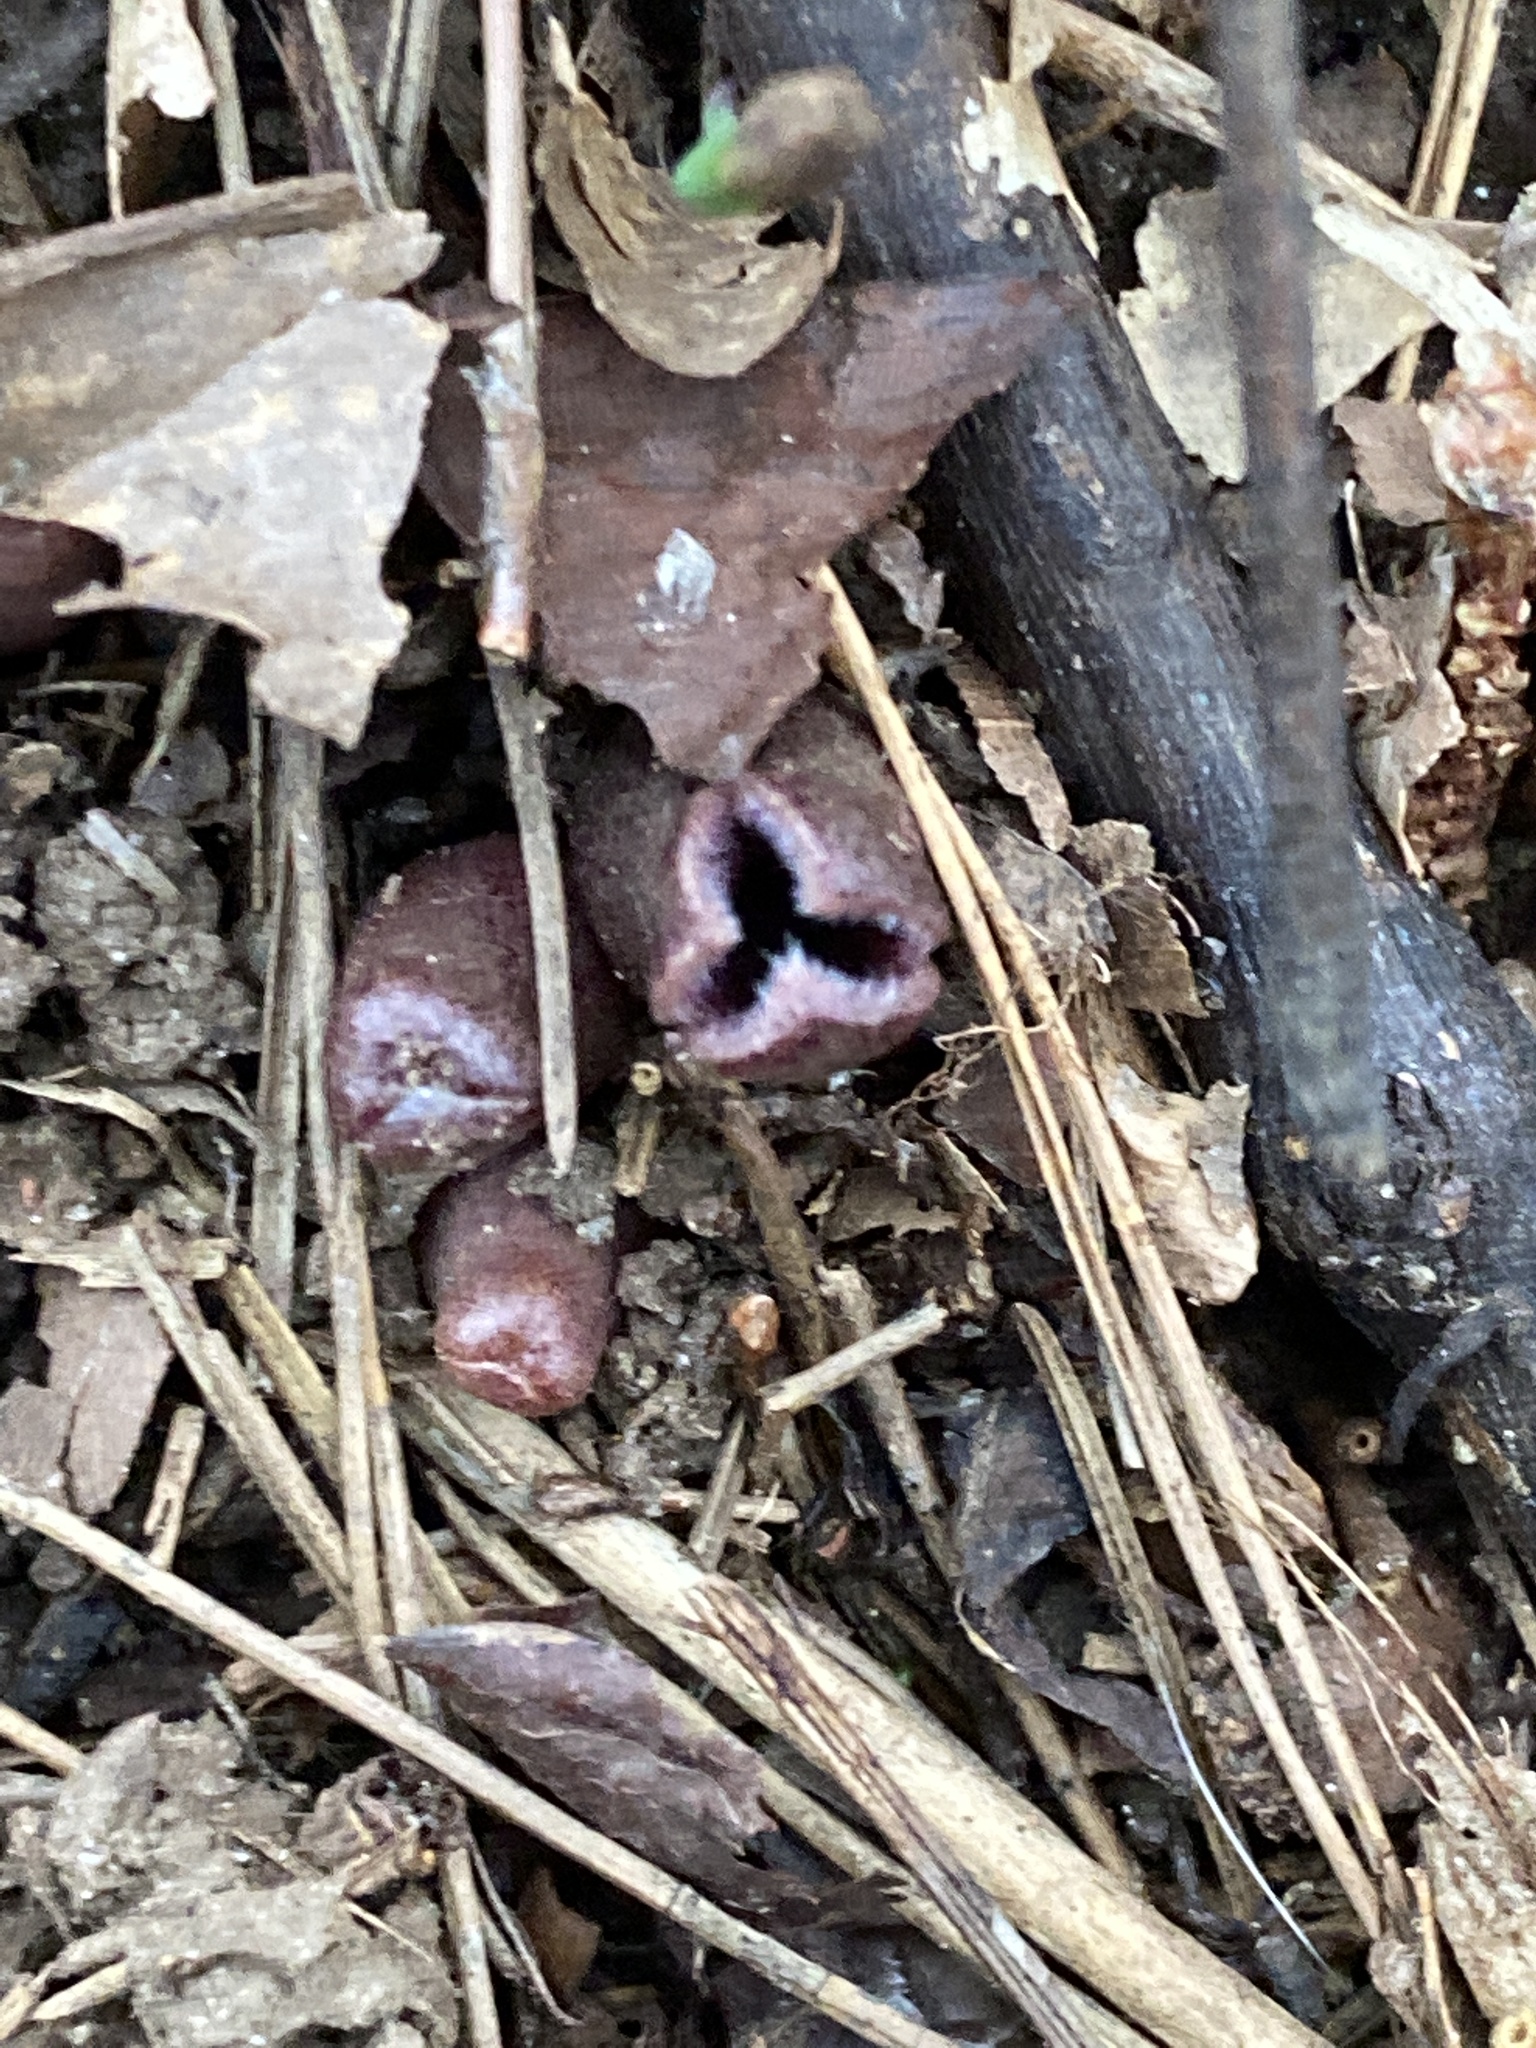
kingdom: Plantae
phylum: Tracheophyta
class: Magnoliopsida
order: Piperales
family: Aristolochiaceae
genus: Hexastylis
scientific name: Hexastylis arifolia
